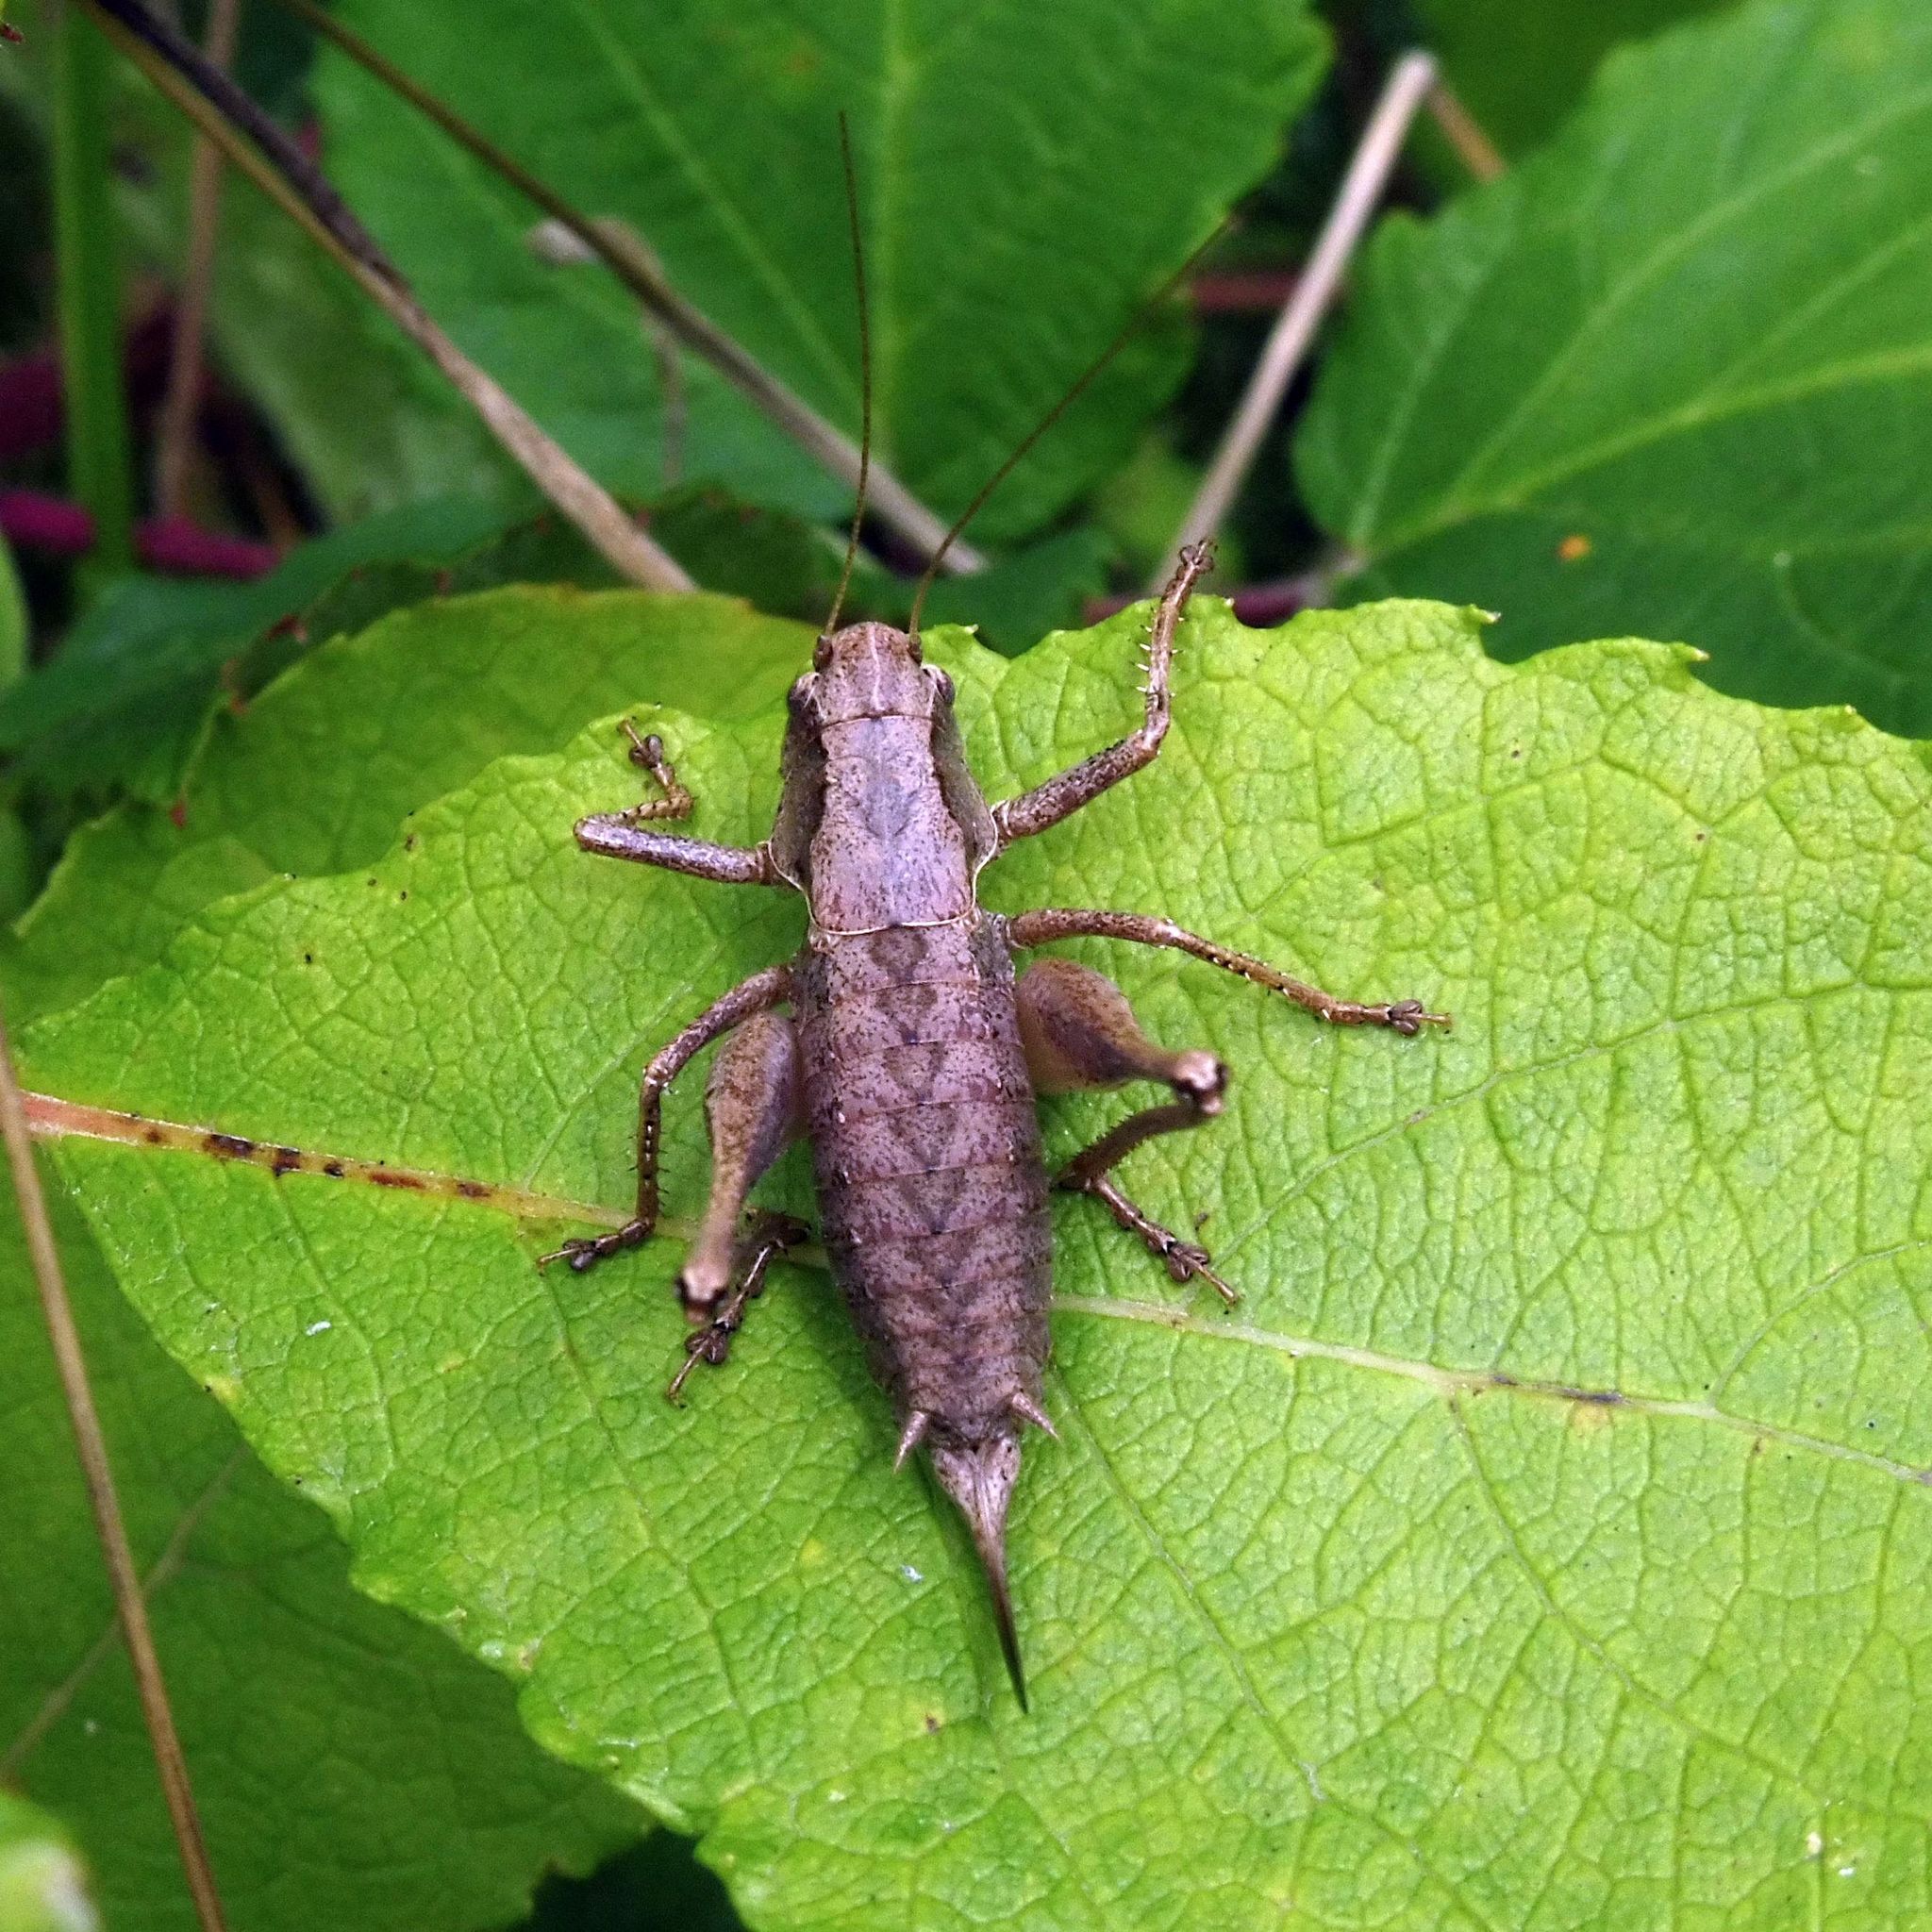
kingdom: Animalia
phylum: Arthropoda
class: Insecta
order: Orthoptera
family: Tettigoniidae
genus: Pholidoptera
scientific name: Pholidoptera griseoaptera
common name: Dark bush-cricket
